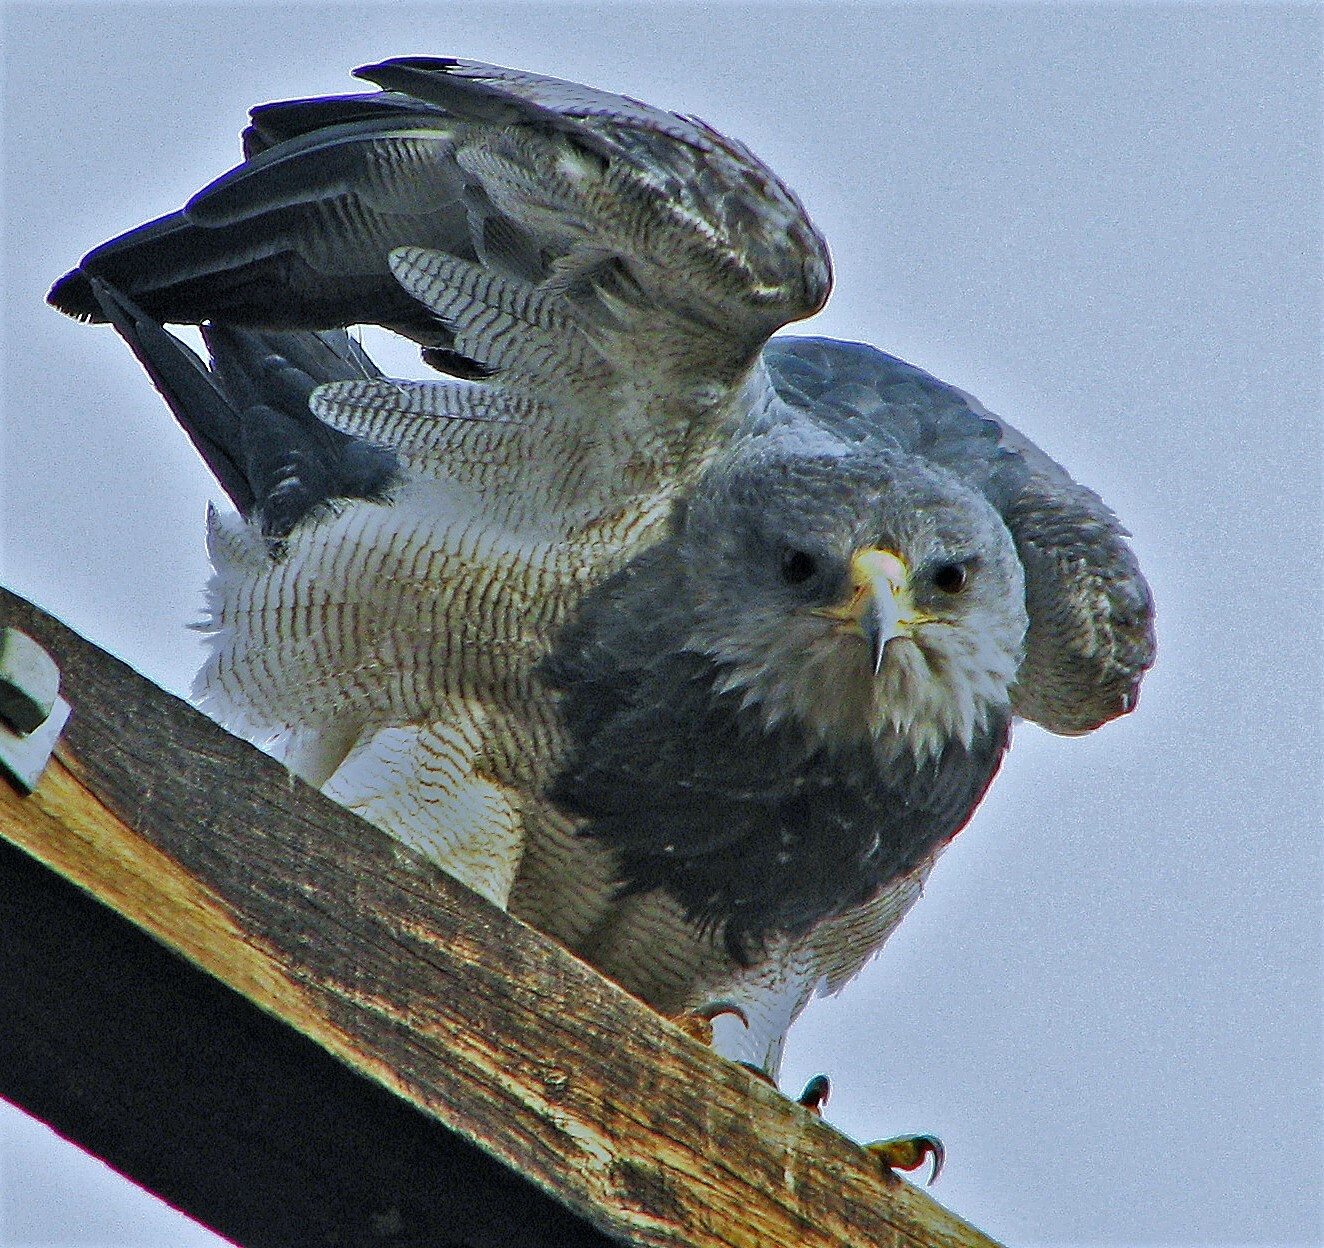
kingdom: Animalia
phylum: Chordata
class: Aves
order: Accipitriformes
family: Accipitridae
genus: Geranoaetus
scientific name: Geranoaetus melanoleucus
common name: Black-chested buzzard-eagle
